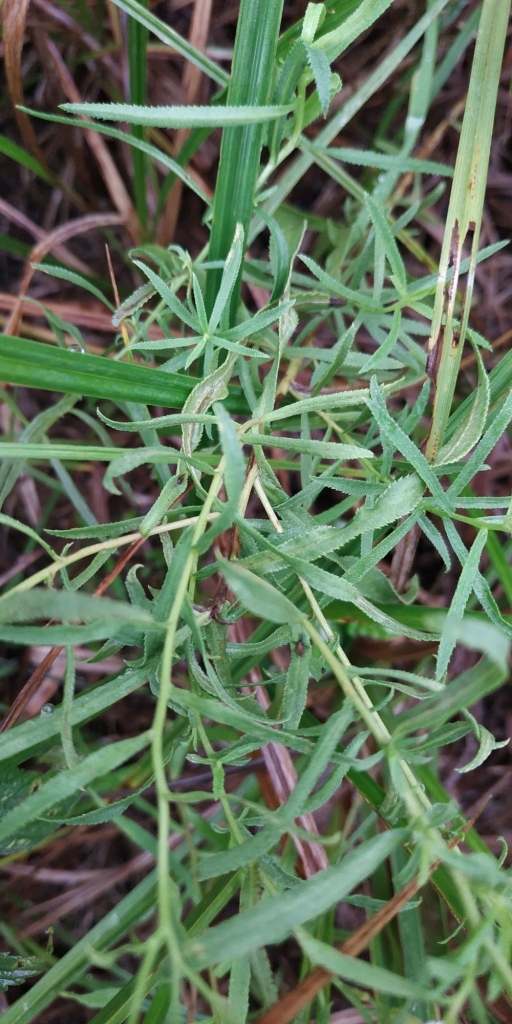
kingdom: Plantae
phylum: Tracheophyta
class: Magnoliopsida
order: Asterales
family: Asteraceae
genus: Achillea
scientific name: Achillea salicifolia
